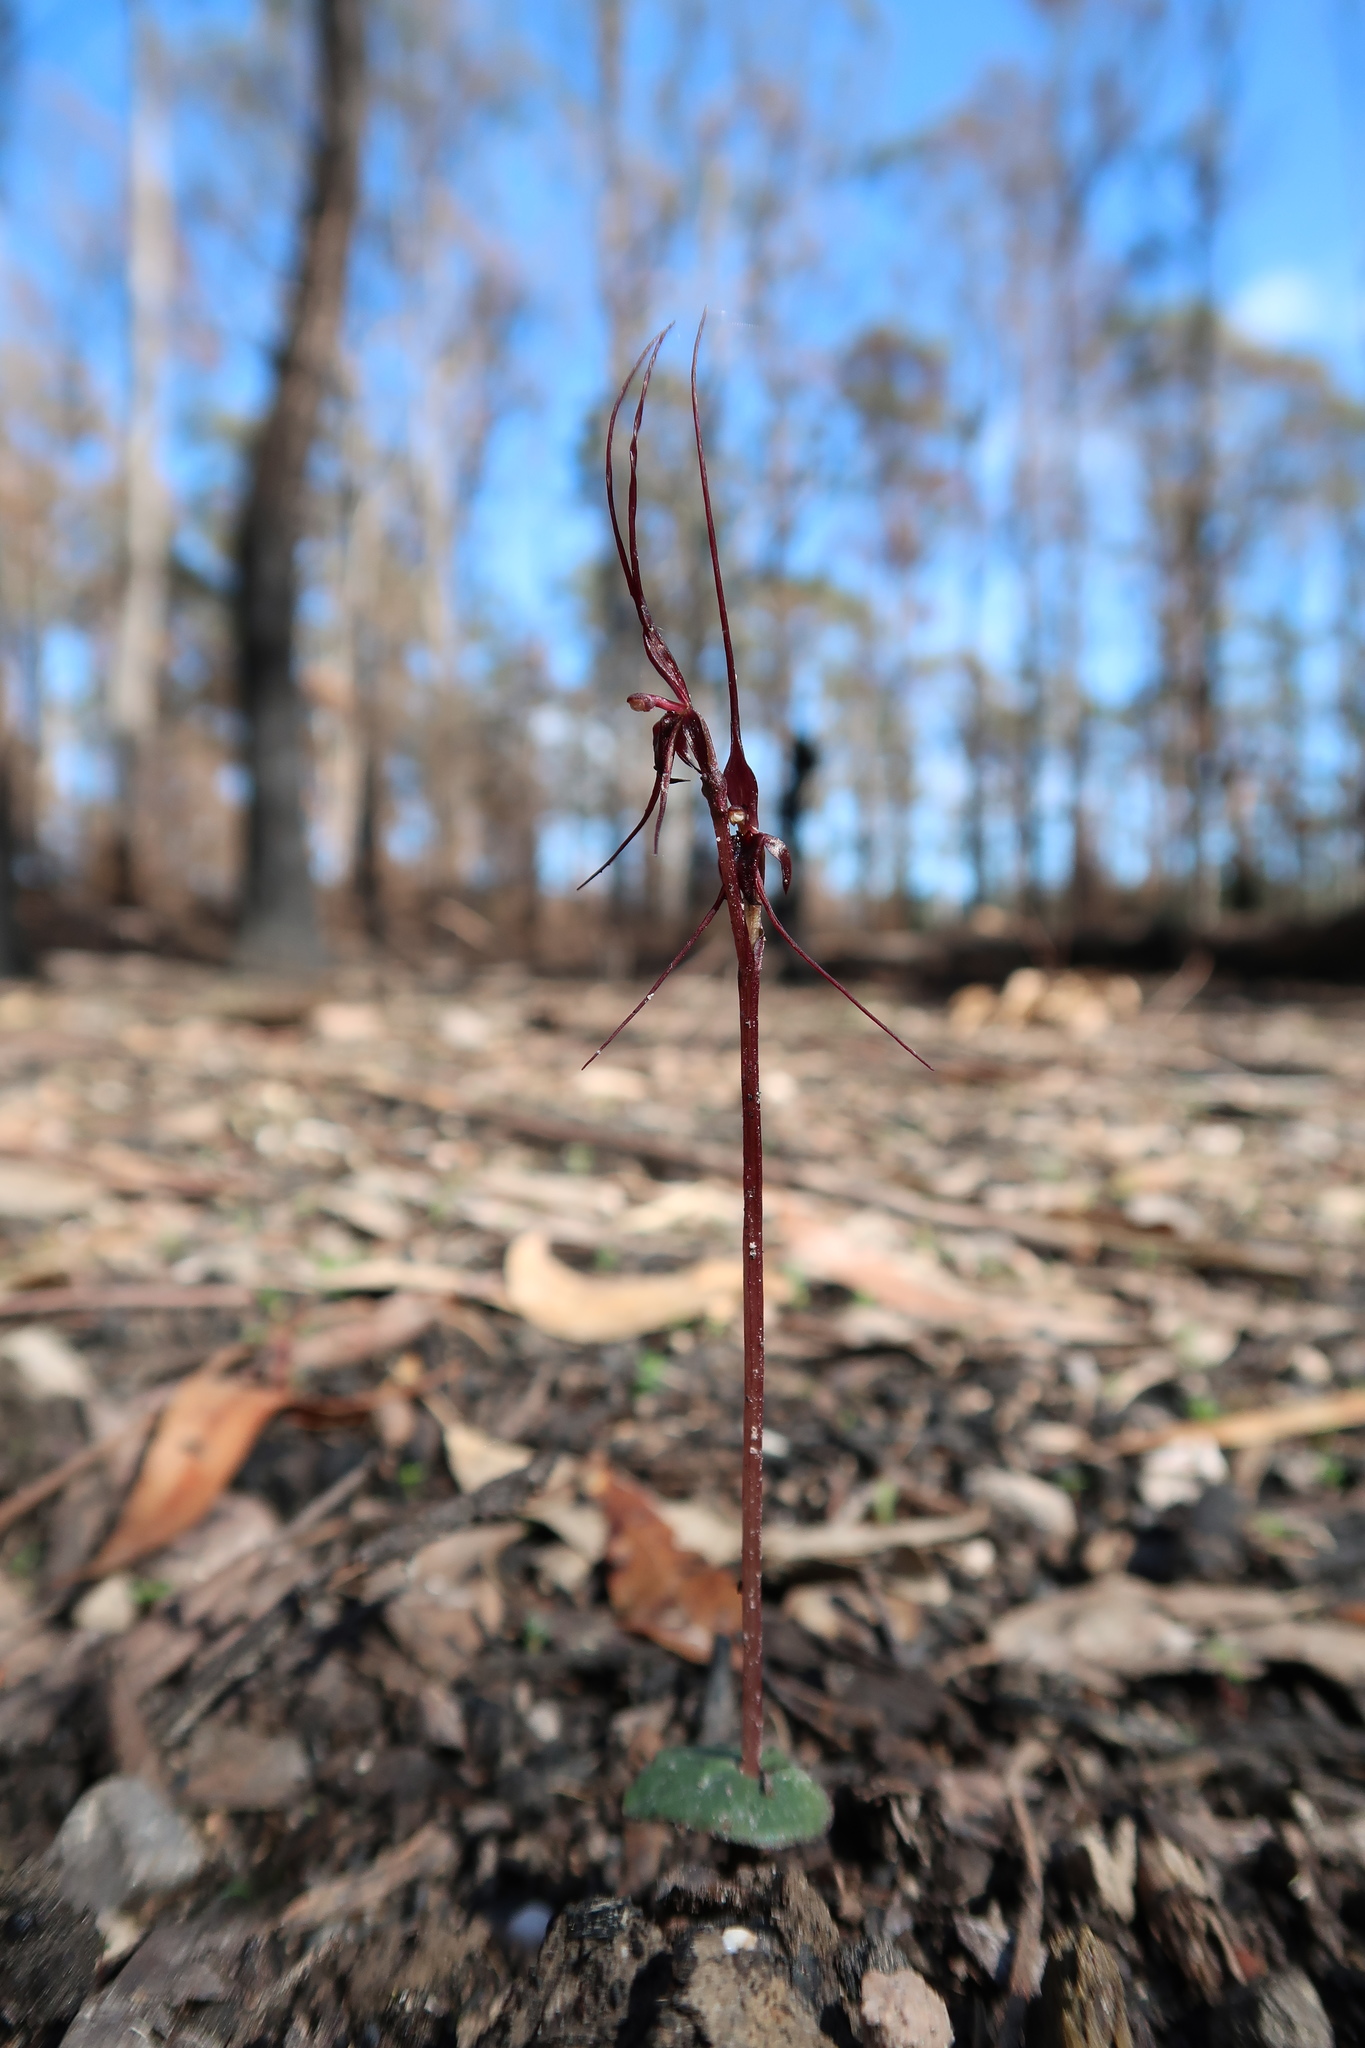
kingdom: Plantae
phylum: Tracheophyta
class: Liliopsida
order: Asparagales
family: Orchidaceae
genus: Acianthus
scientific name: Acianthus caudatus
